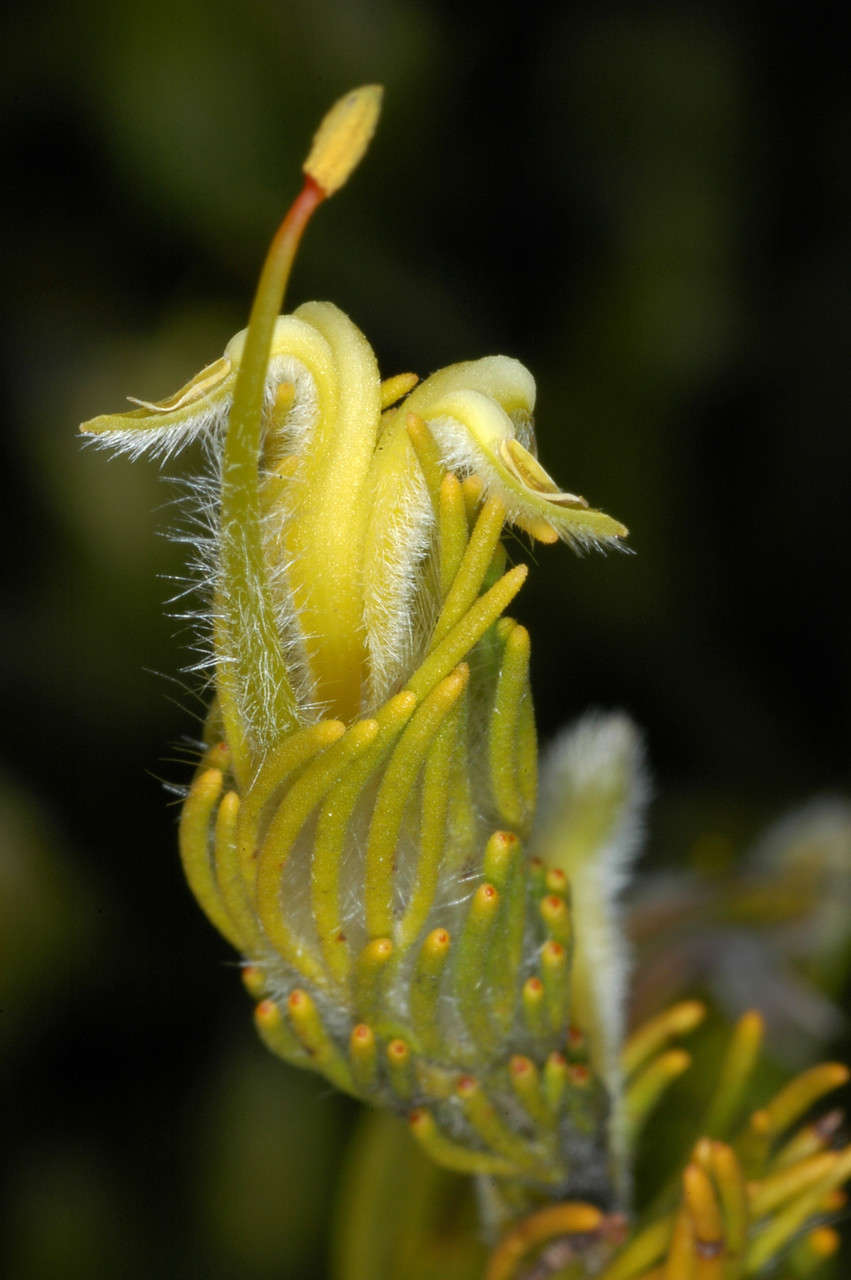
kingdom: Plantae
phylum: Tracheophyta
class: Magnoliopsida
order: Proteales
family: Proteaceae
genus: Adenanthos
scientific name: Adenanthos terminalis
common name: Yellow gland-flower
